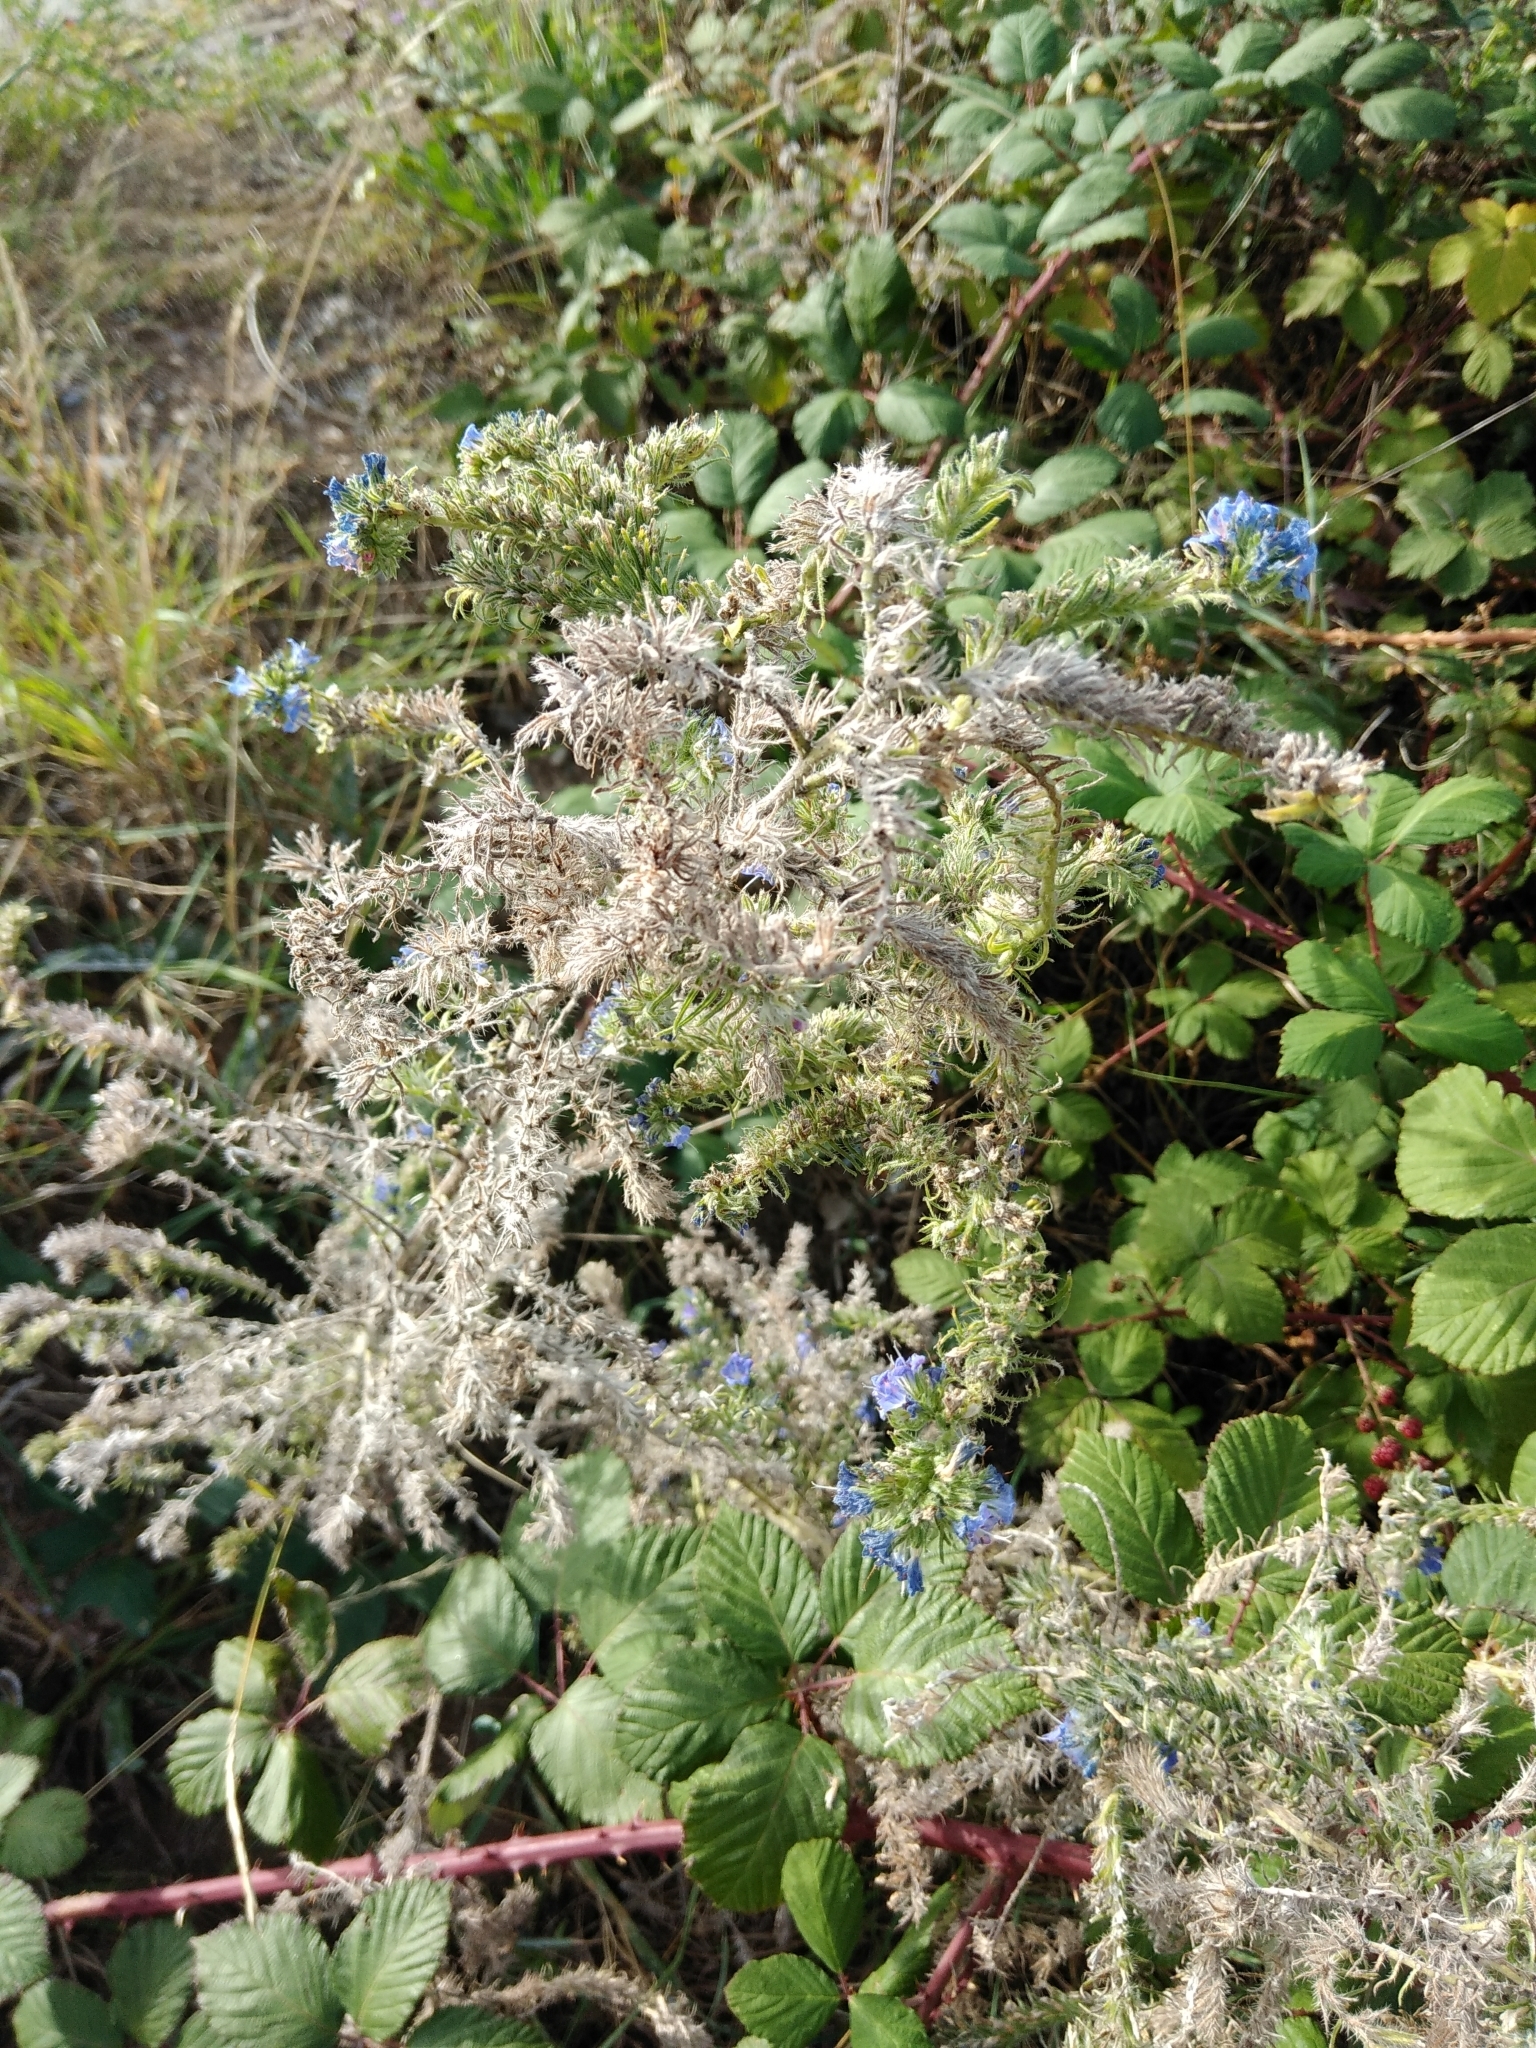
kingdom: Plantae
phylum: Tracheophyta
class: Magnoliopsida
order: Boraginales
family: Boraginaceae
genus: Echium
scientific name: Echium vulgare
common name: Common viper's bugloss
